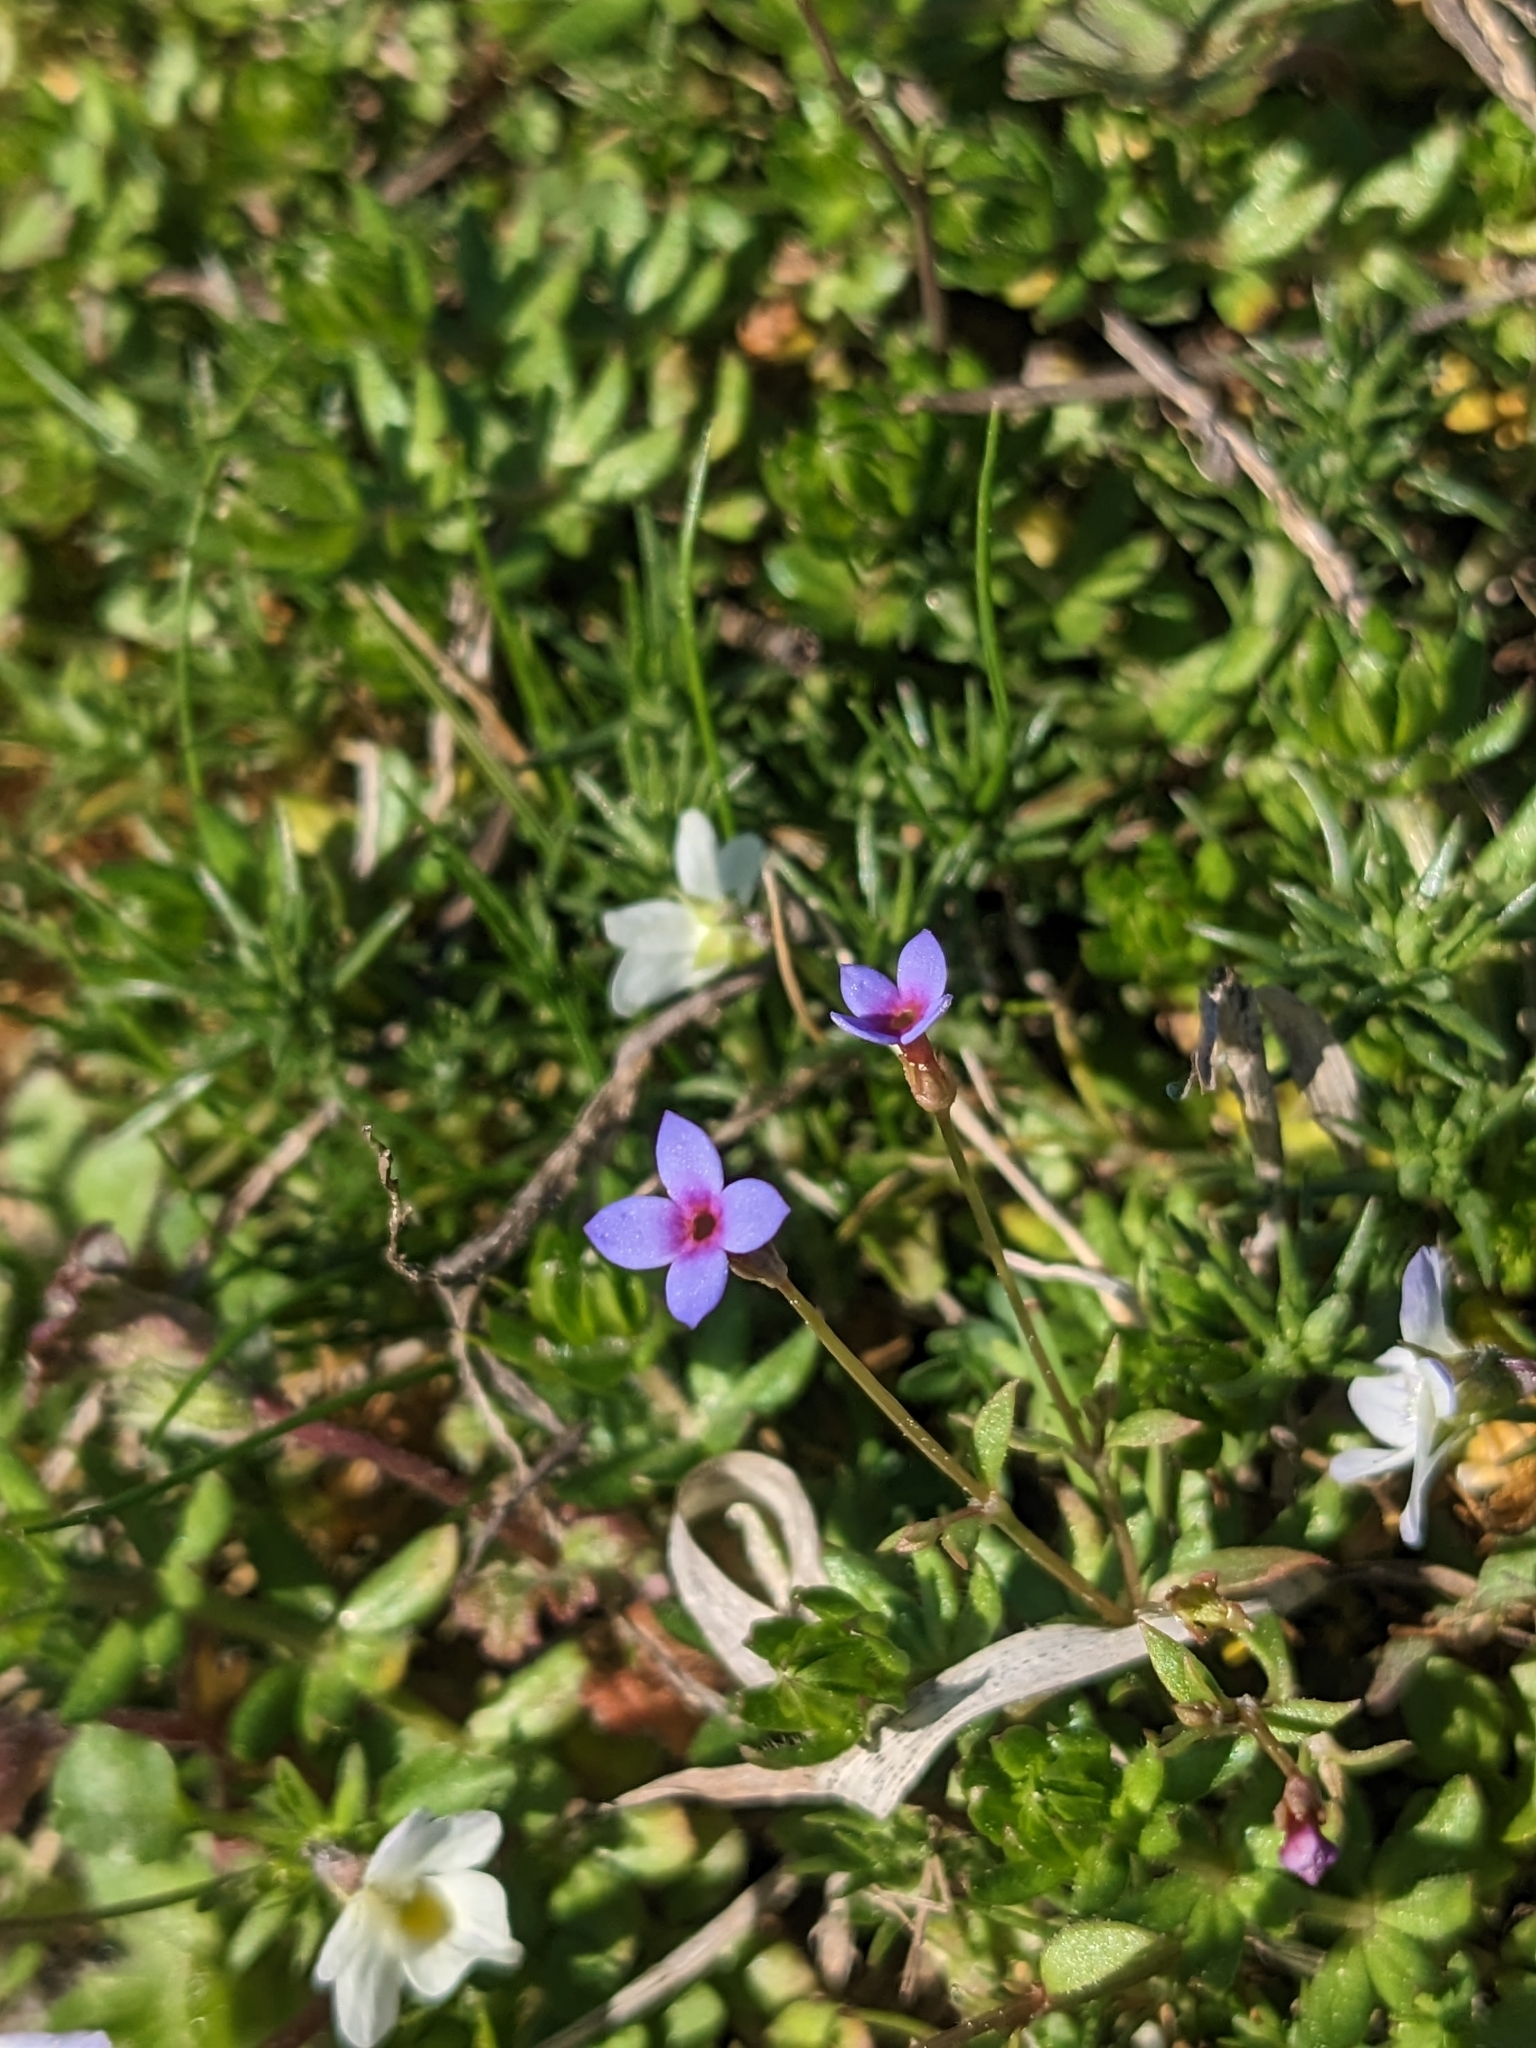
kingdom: Plantae
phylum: Tracheophyta
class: Magnoliopsida
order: Gentianales
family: Rubiaceae
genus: Houstonia
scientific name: Houstonia pusilla
